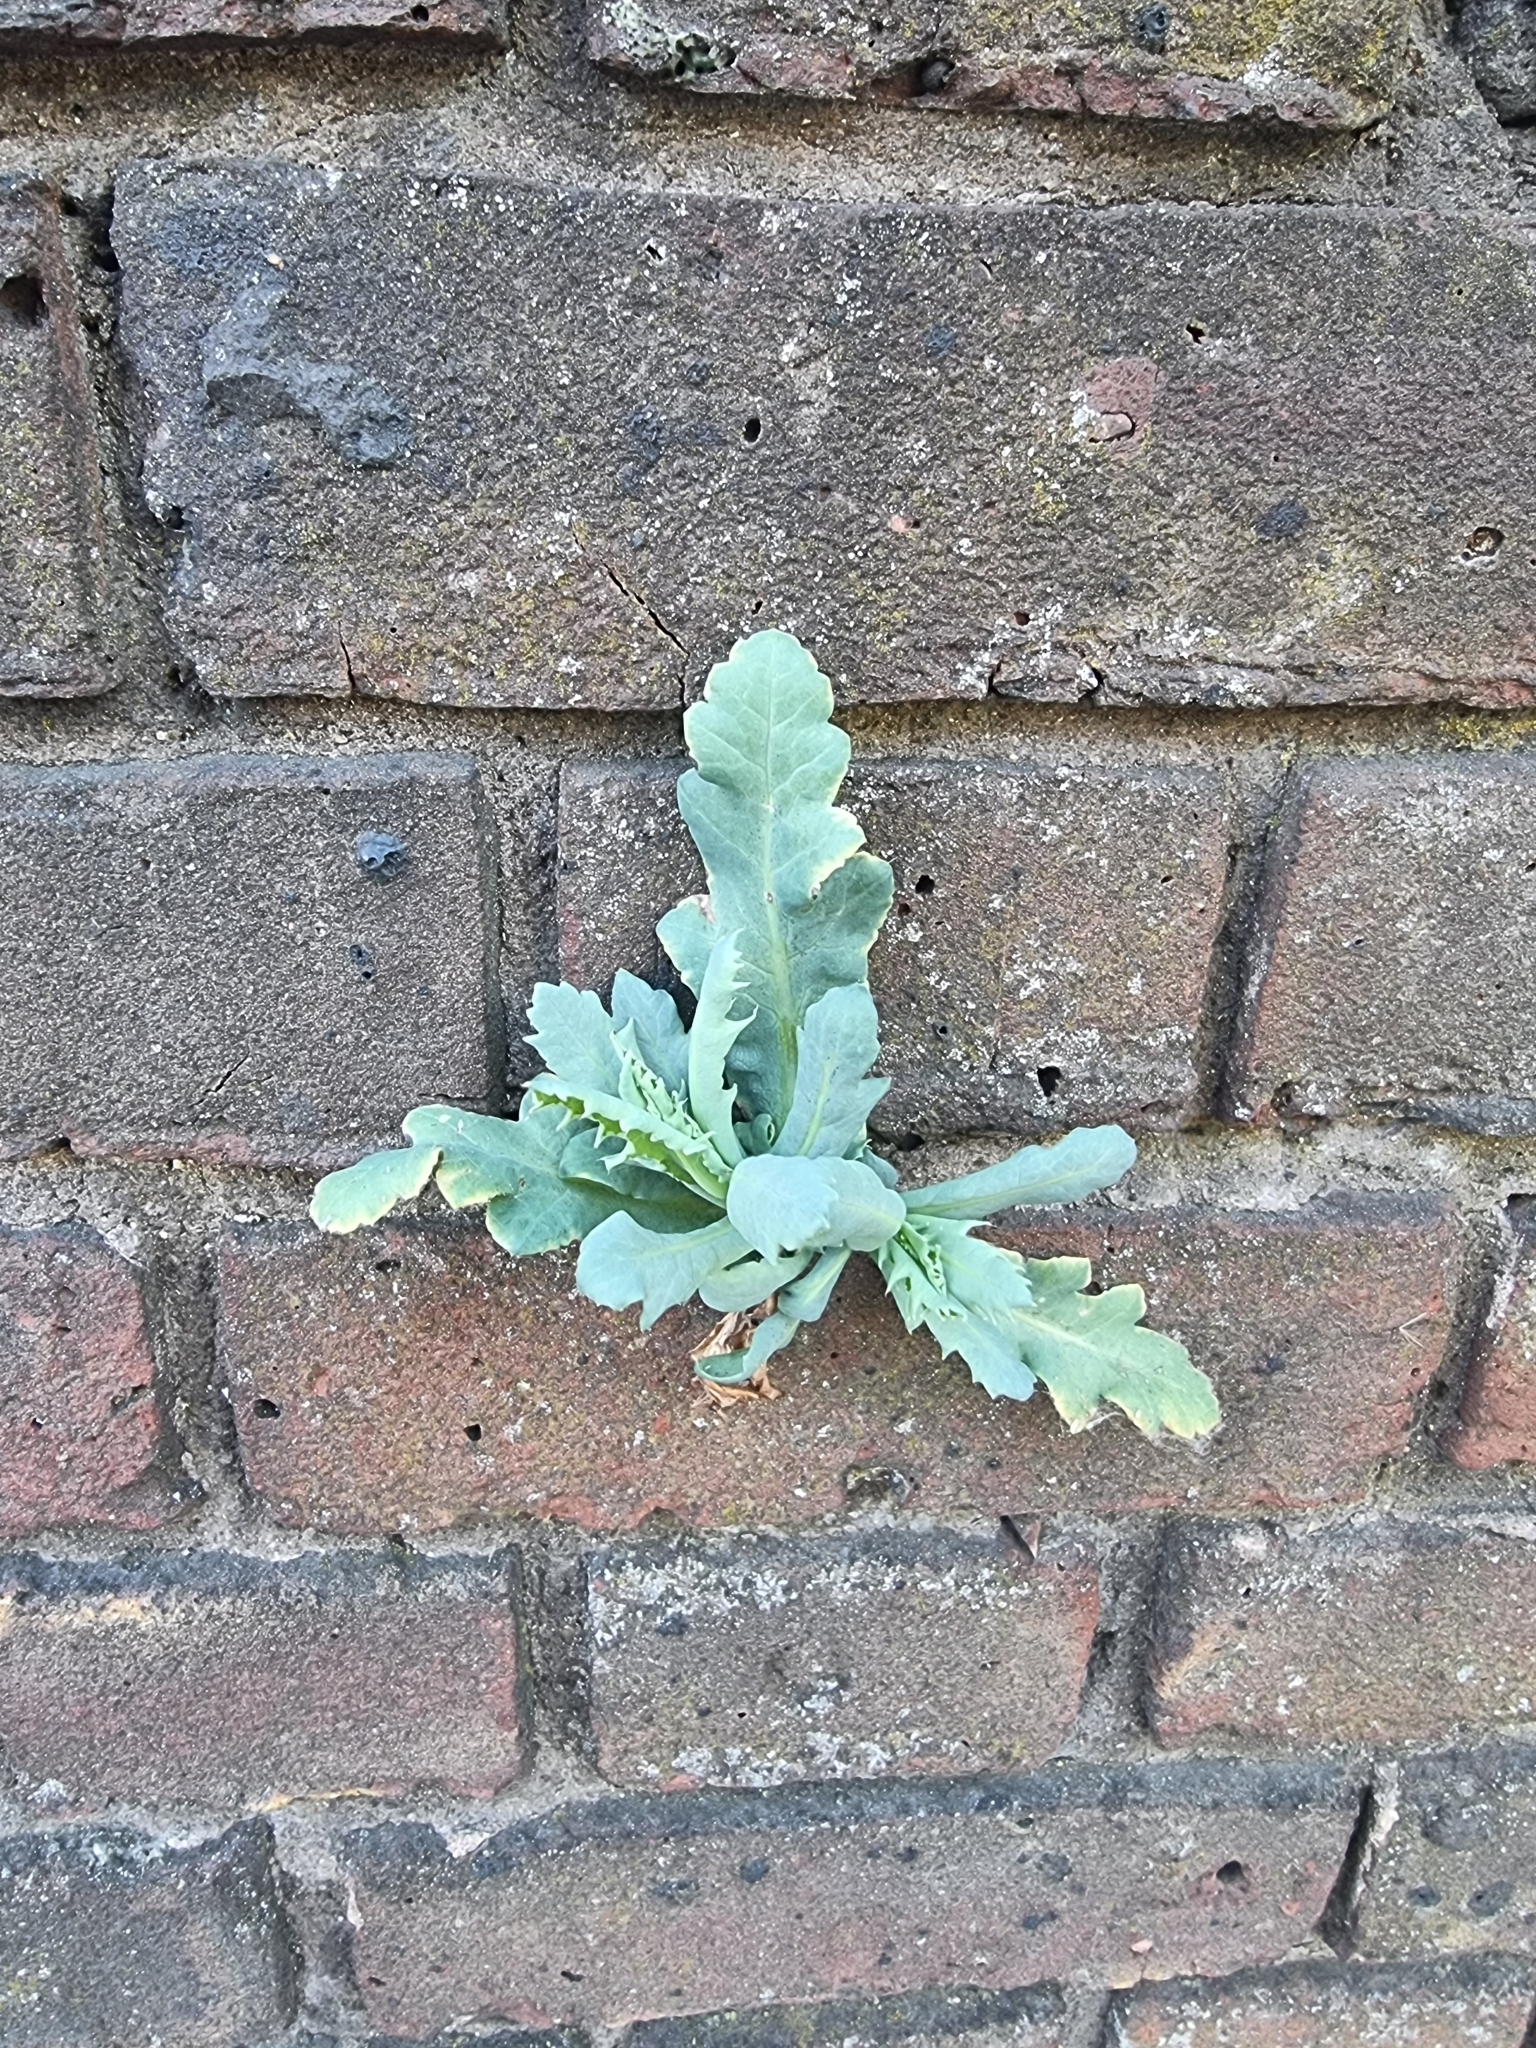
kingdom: Plantae
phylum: Tracheophyta
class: Magnoliopsida
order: Ranunculales
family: Papaveraceae
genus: Papaver
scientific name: Papaver somniferum
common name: Opium poppy
